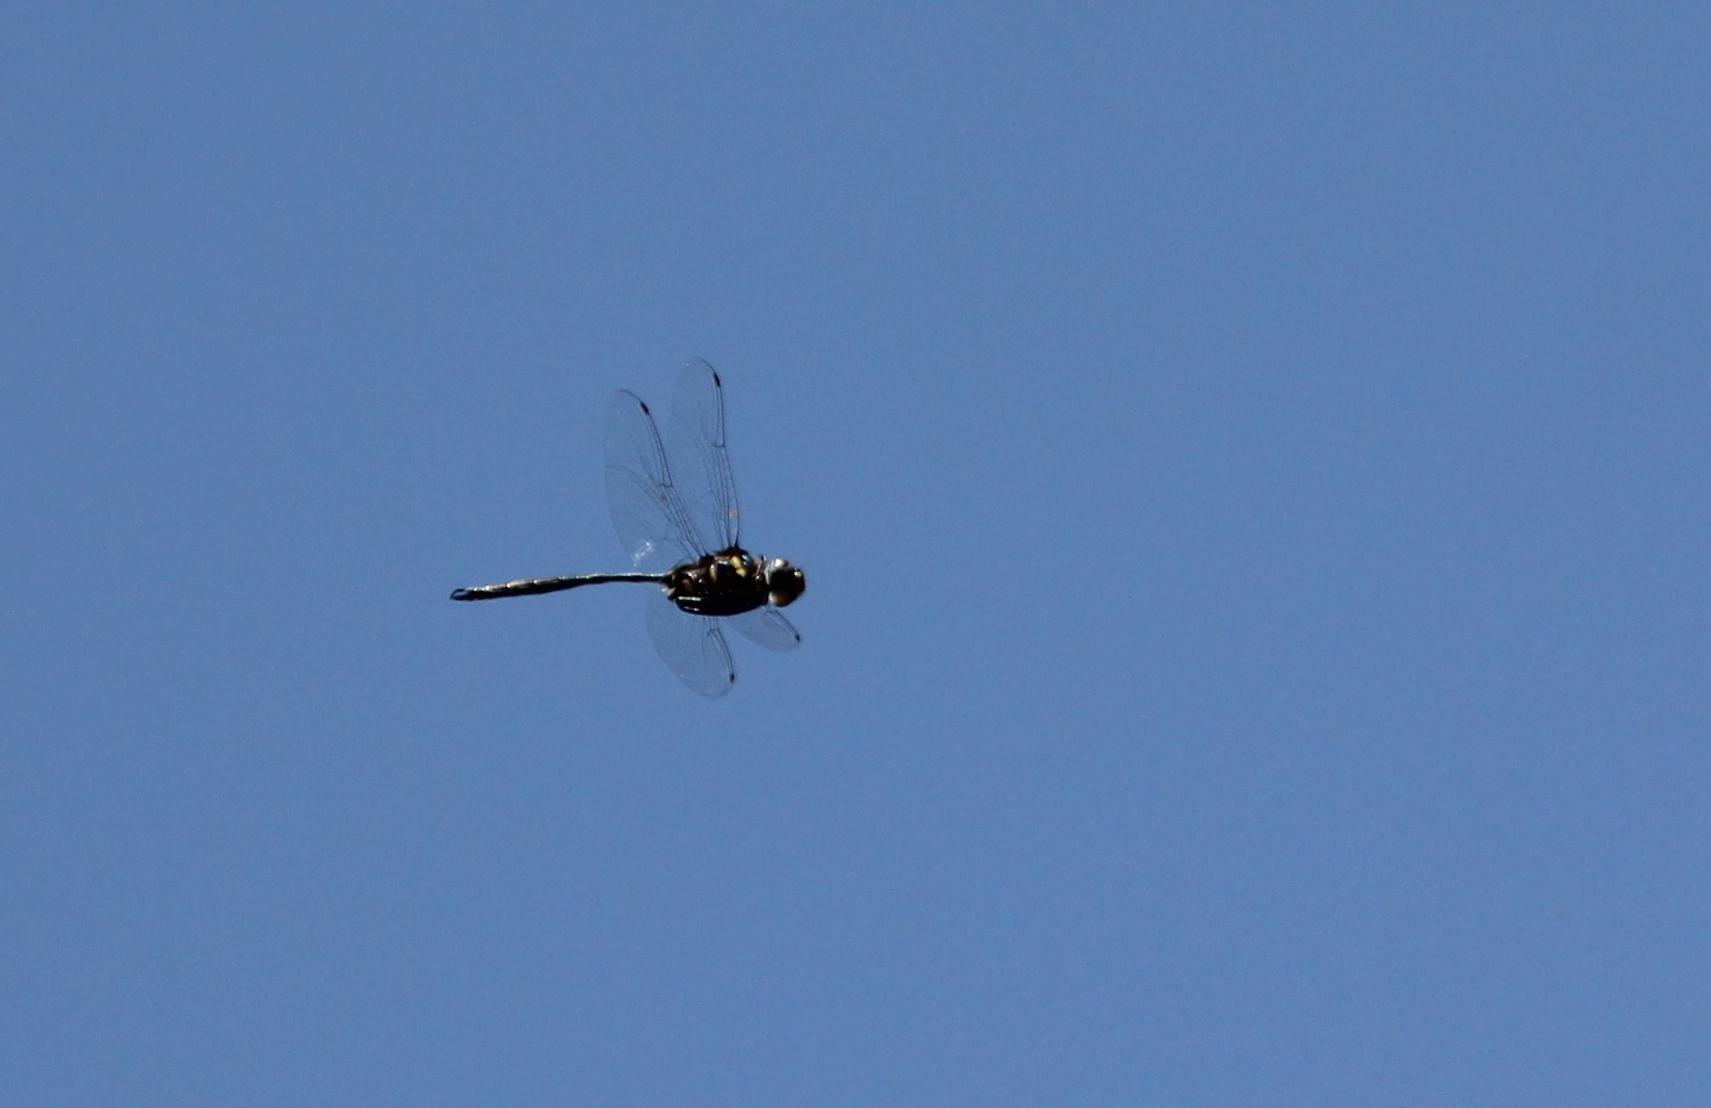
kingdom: Animalia
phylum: Arthropoda
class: Insecta
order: Odonata
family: Corduliidae
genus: Somatochlora
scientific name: Somatochlora provocans
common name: Treetop emerald
